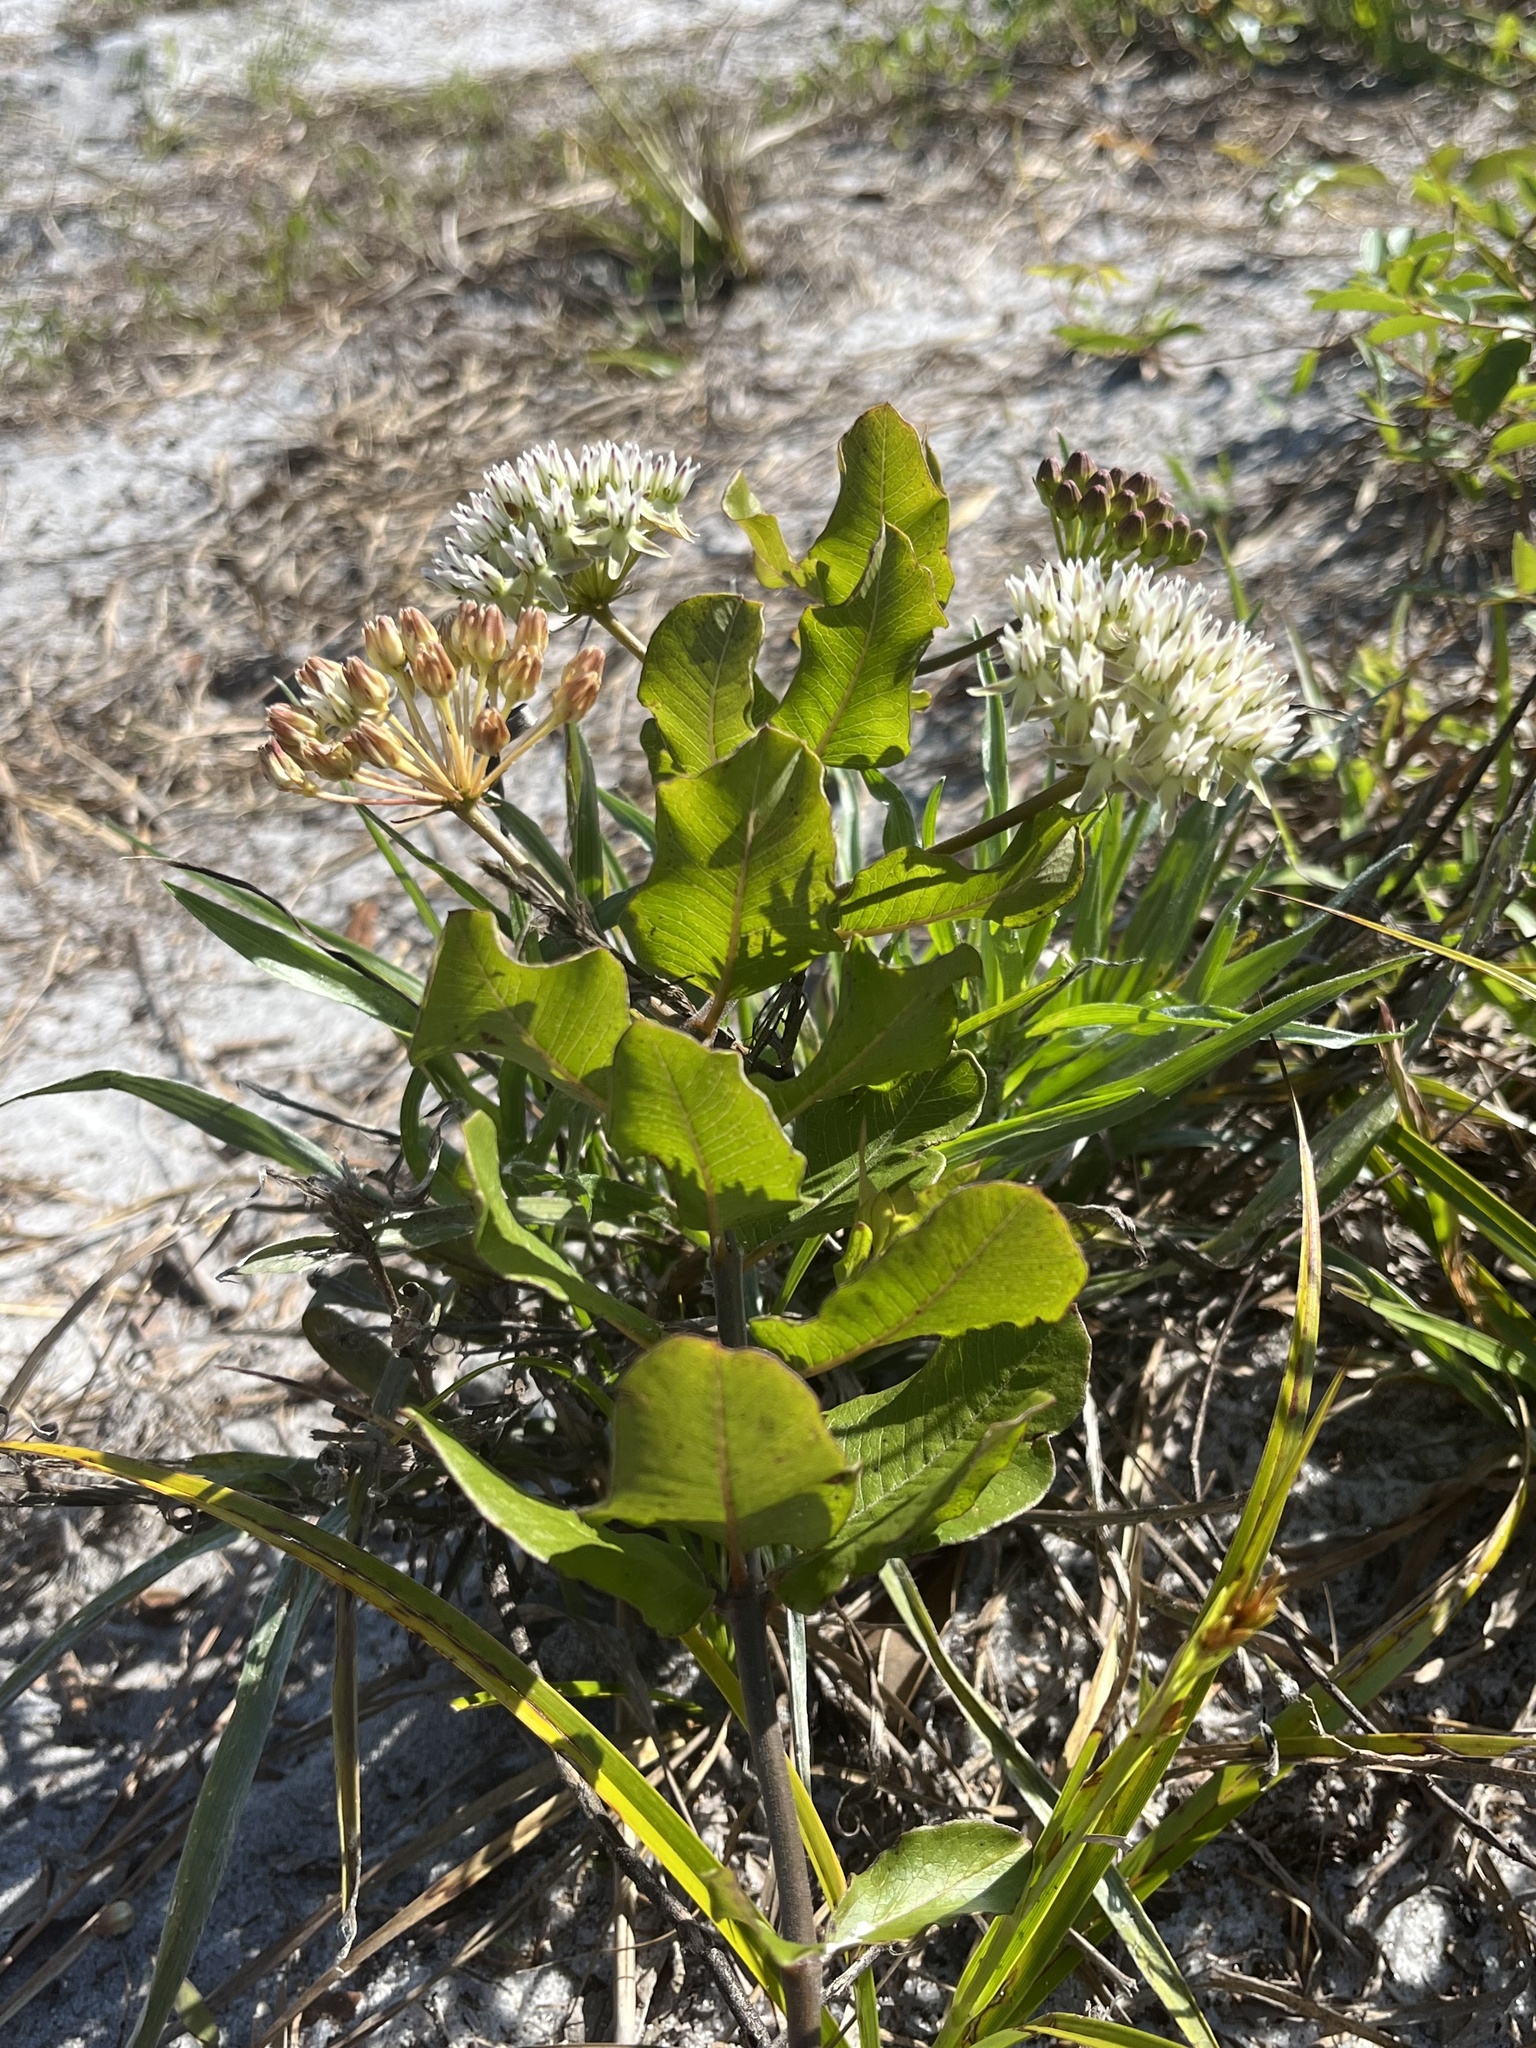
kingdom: Plantae
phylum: Tracheophyta
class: Magnoliopsida
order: Gentianales
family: Apocynaceae
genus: Asclepias
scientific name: Asclepias curtissii
